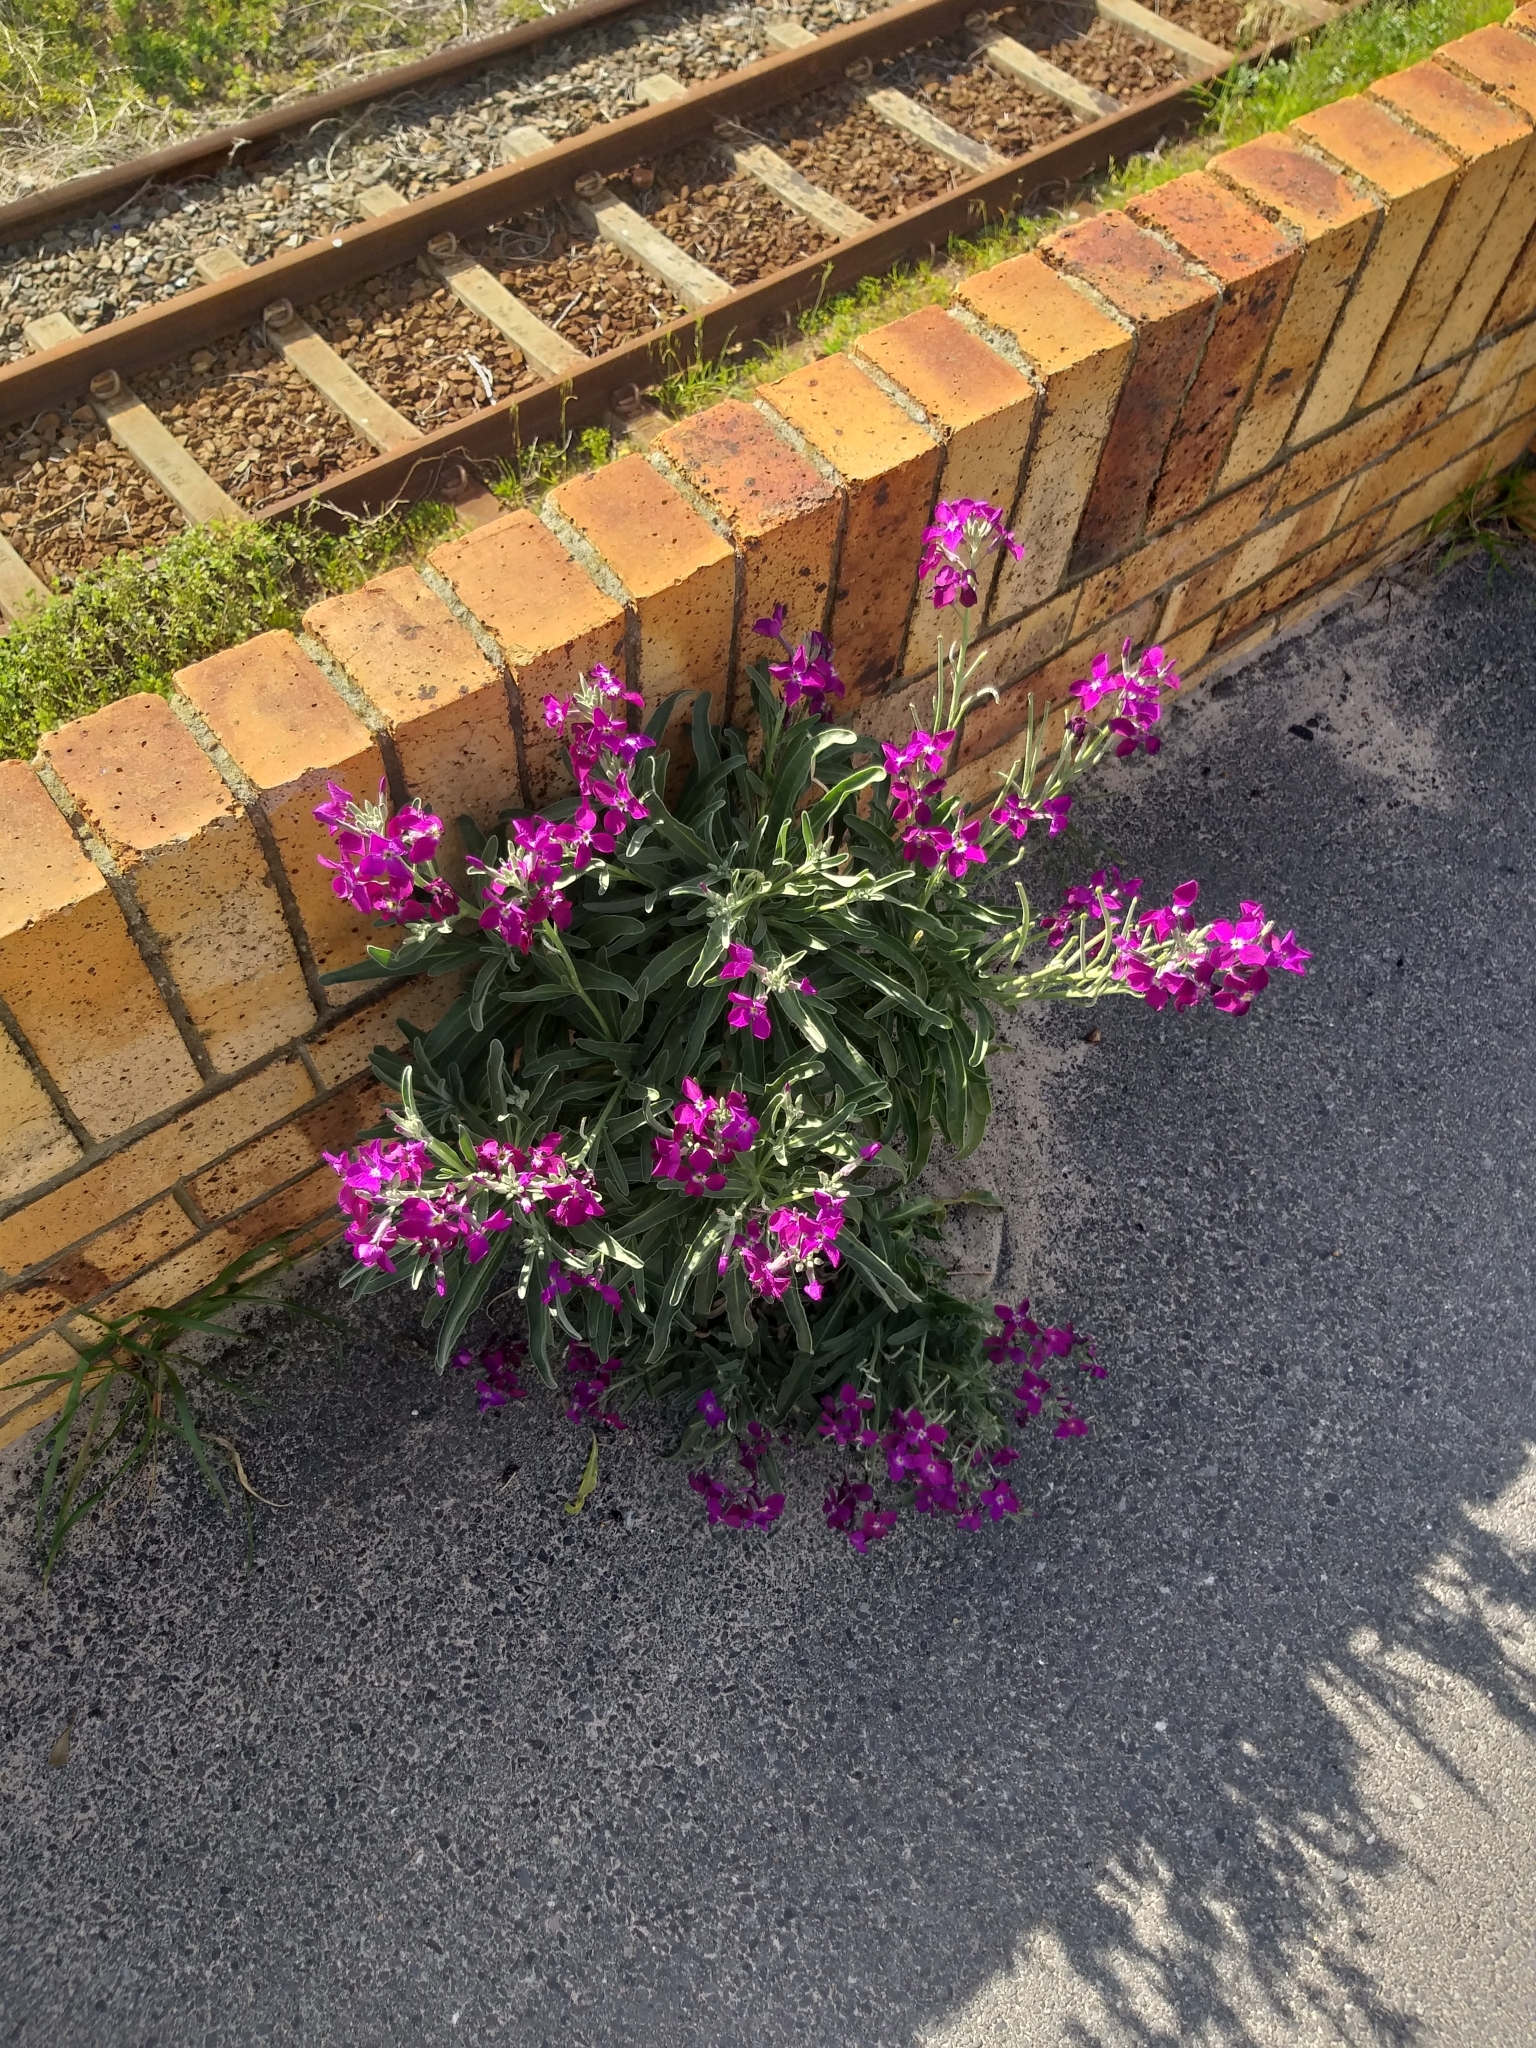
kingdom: Plantae
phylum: Tracheophyta
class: Magnoliopsida
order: Brassicales
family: Brassicaceae
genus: Matthiola
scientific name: Matthiola incana
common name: Hoary stock
